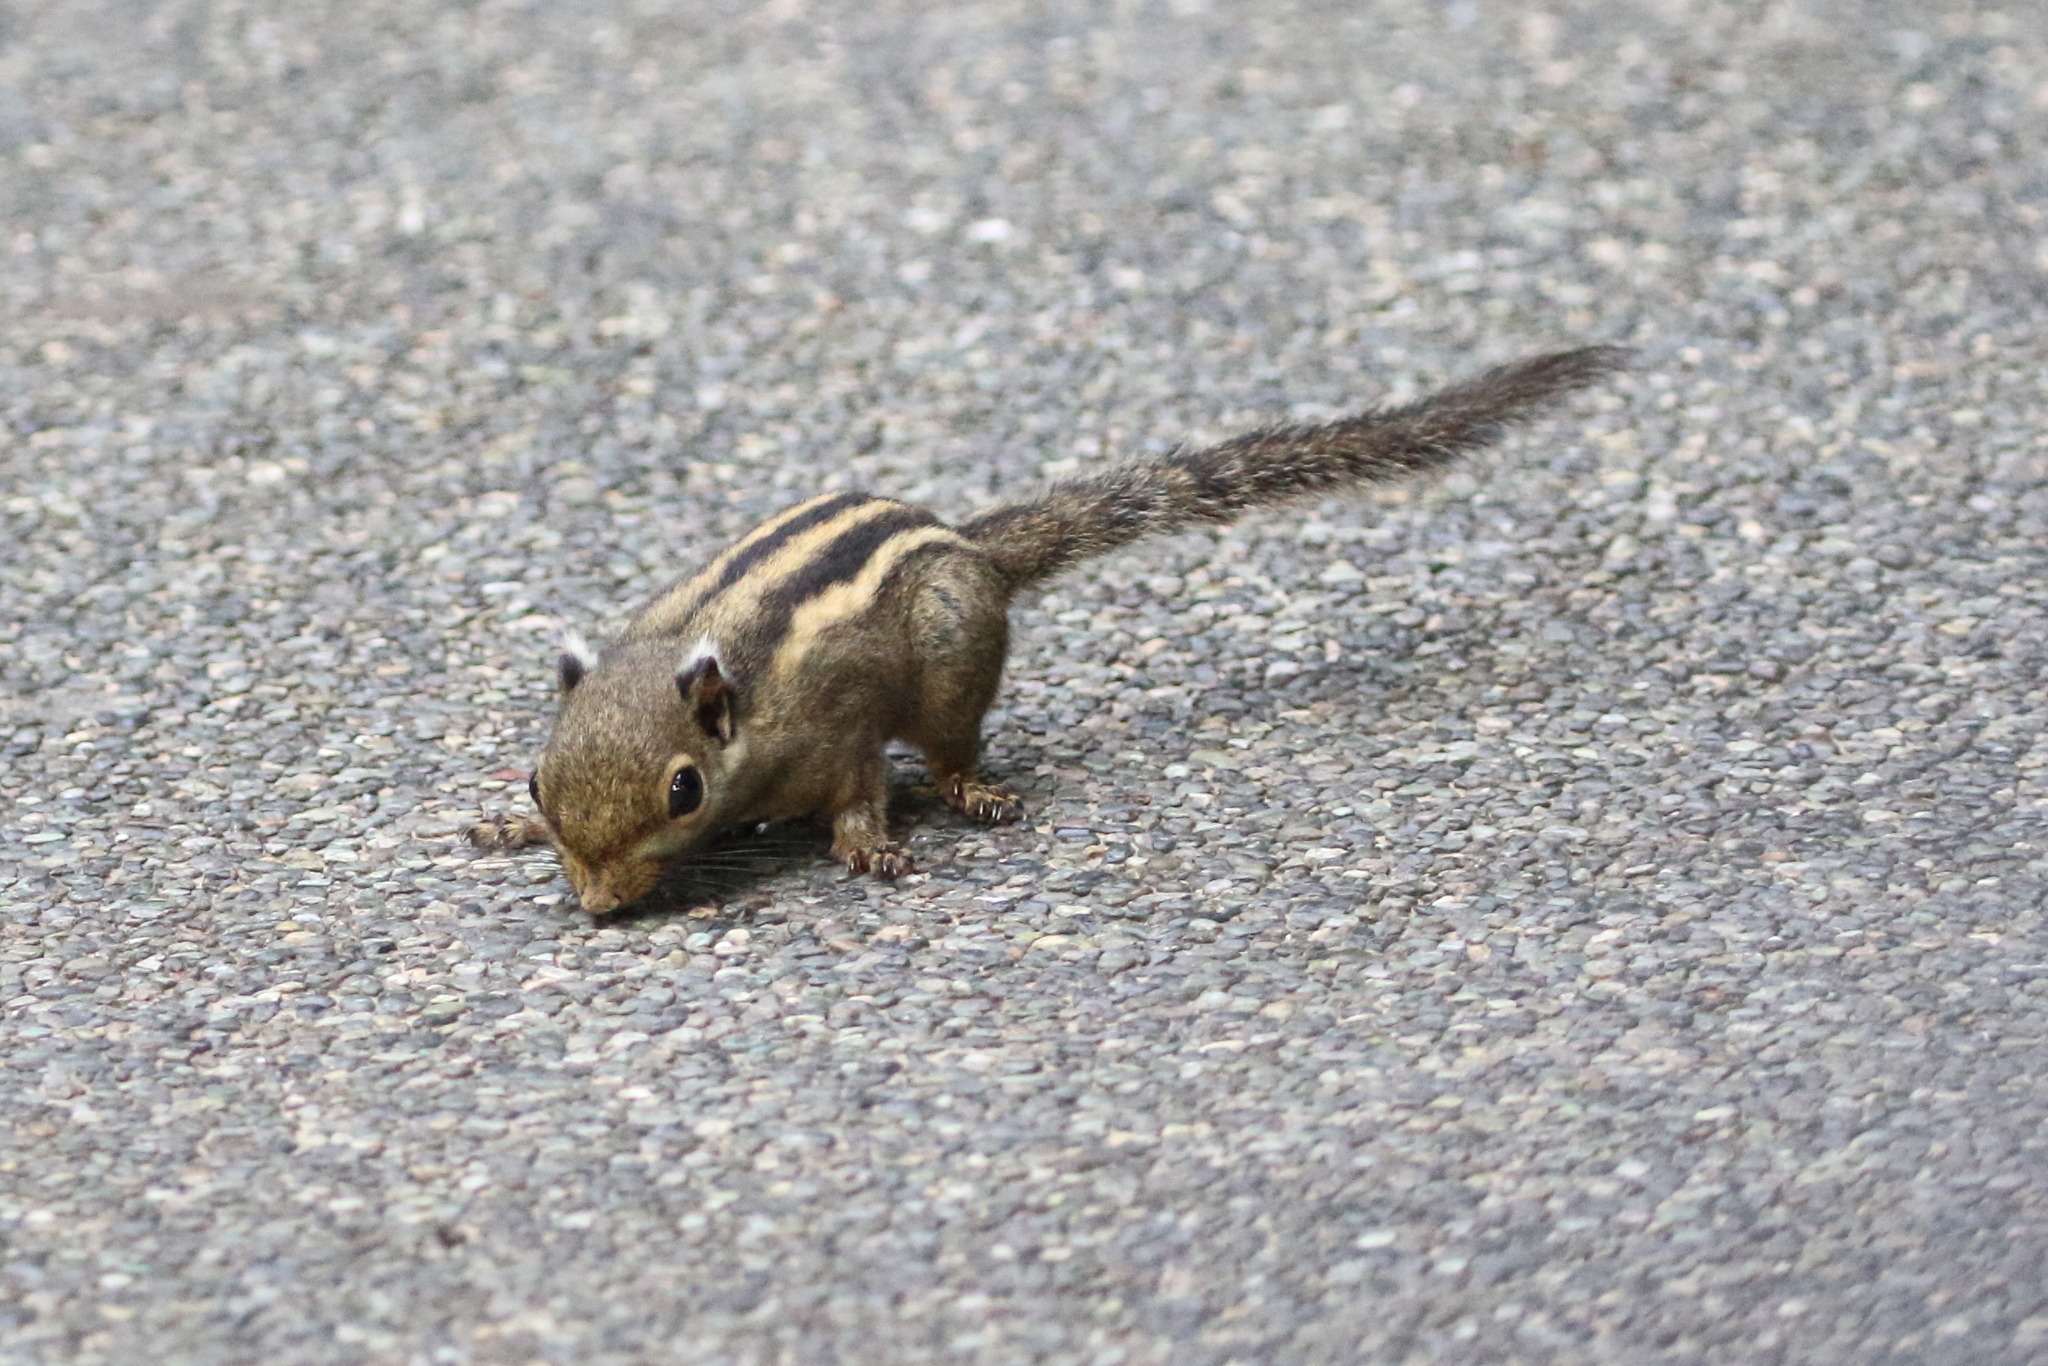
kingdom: Animalia
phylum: Chordata
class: Mammalia
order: Rodentia
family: Sciuridae
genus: Tamiops
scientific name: Tamiops mcclellandii
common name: Himalayan striped squirrel
